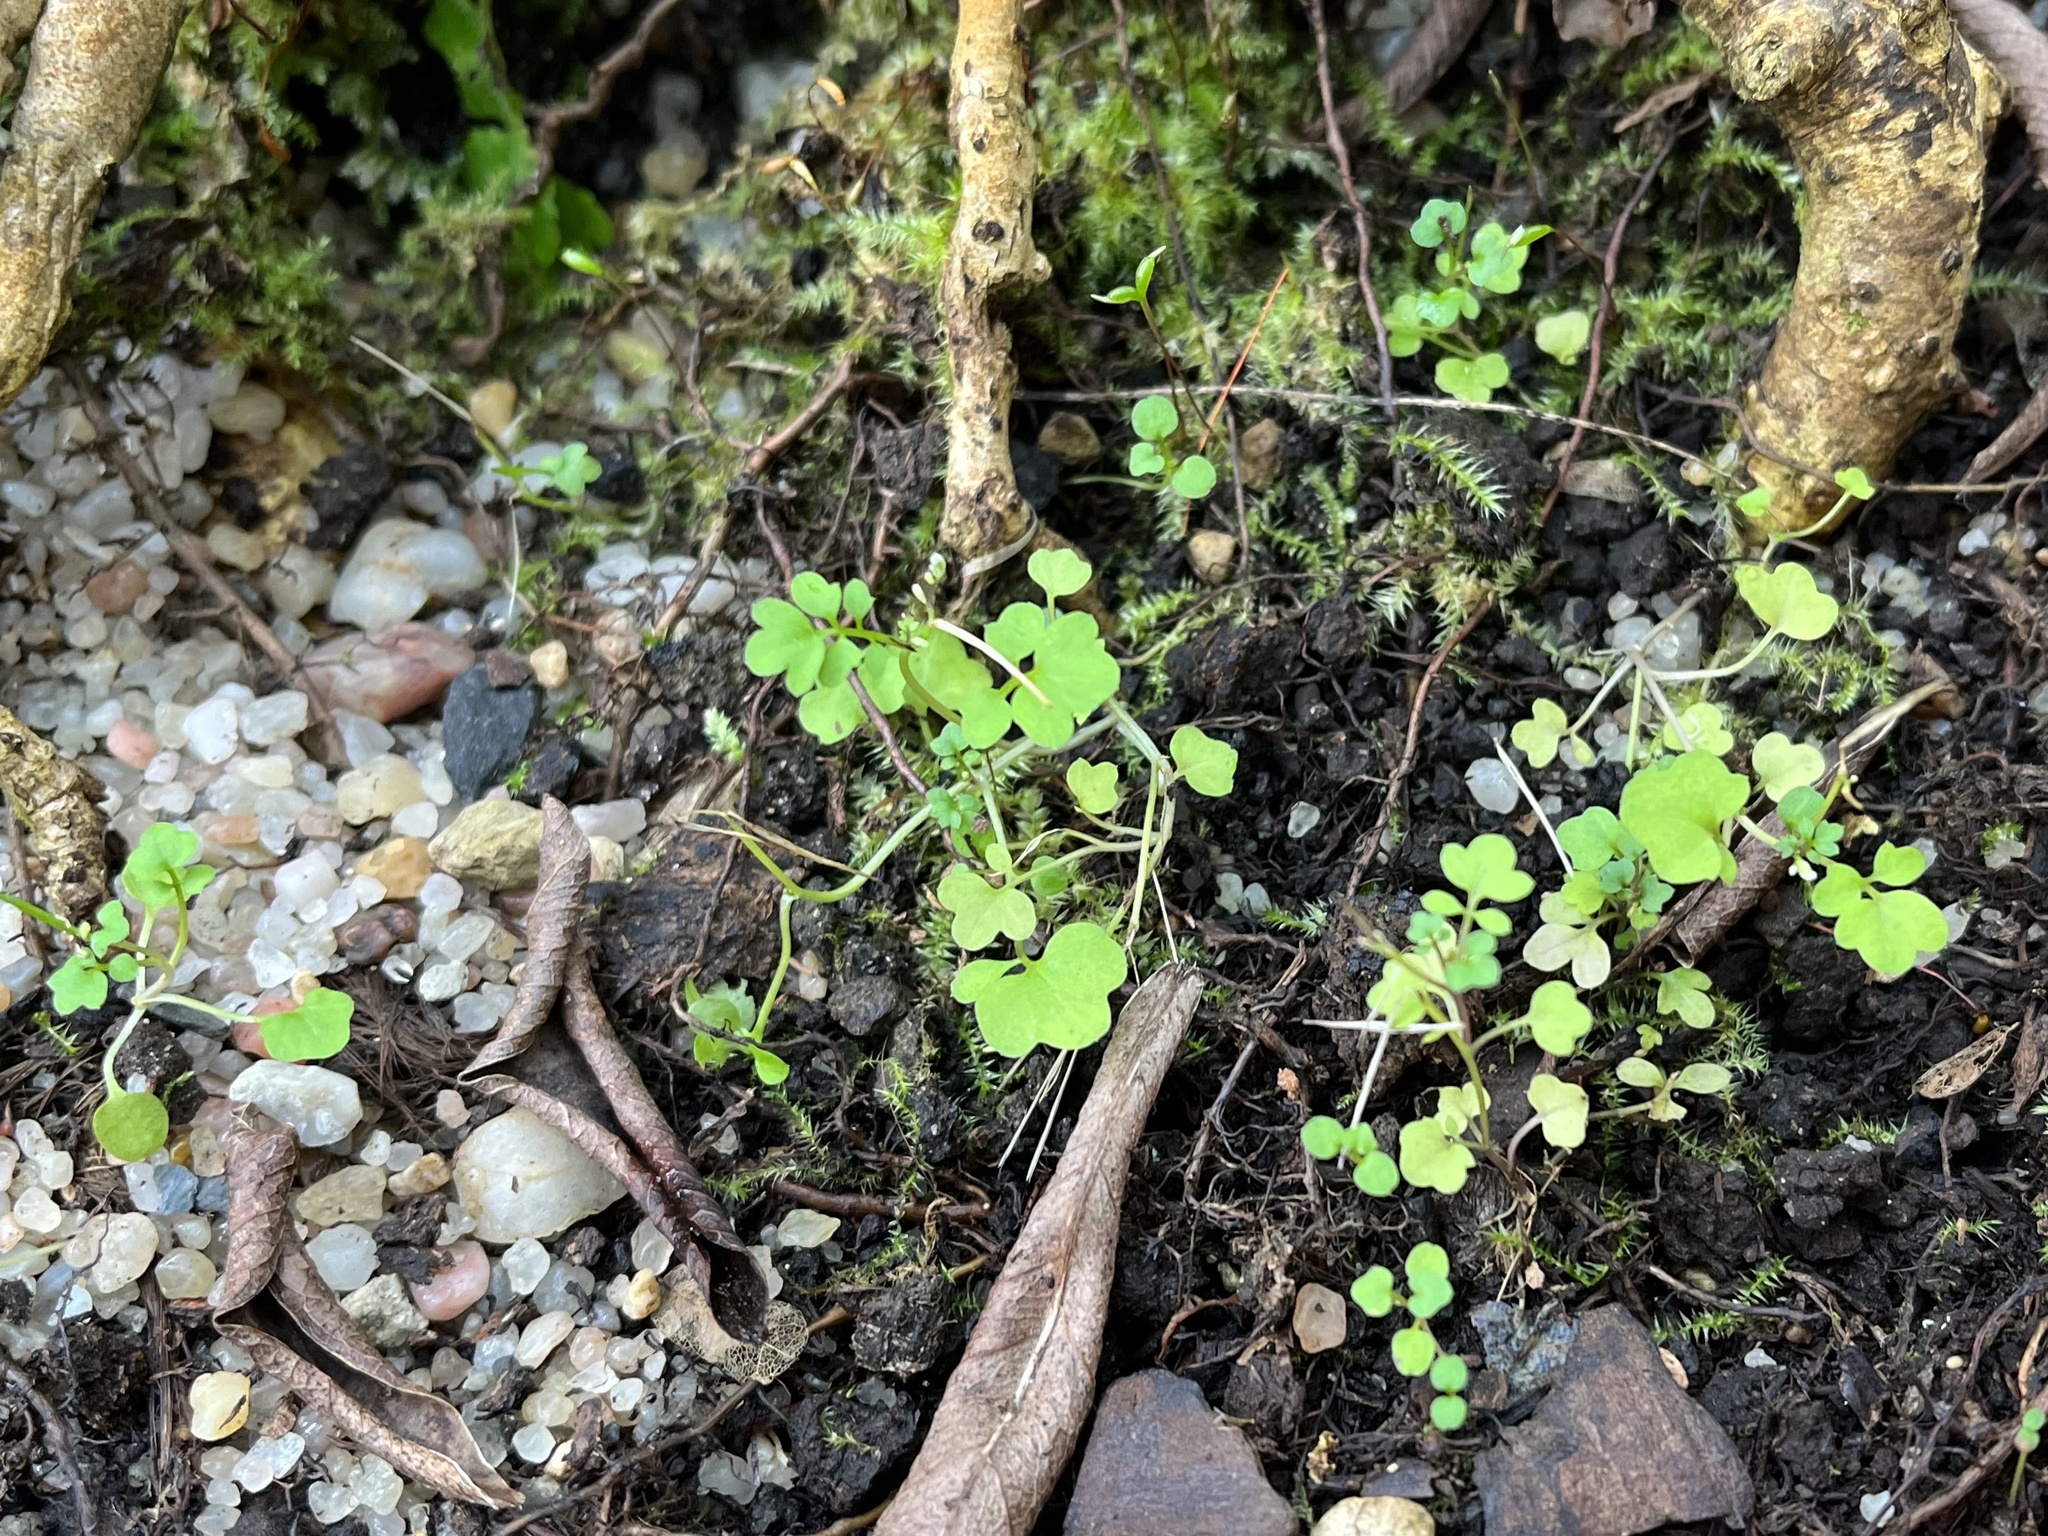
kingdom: Plantae
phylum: Tracheophyta
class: Magnoliopsida
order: Brassicales
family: Brassicaceae
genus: Cardamine
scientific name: Cardamine occulta
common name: Asian wavy bittercress
